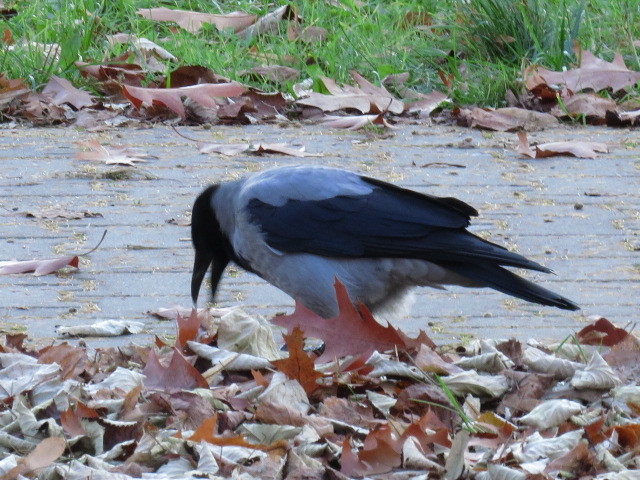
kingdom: Animalia
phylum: Chordata
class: Aves
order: Passeriformes
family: Corvidae
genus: Corvus
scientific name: Corvus cornix
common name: Hooded crow
